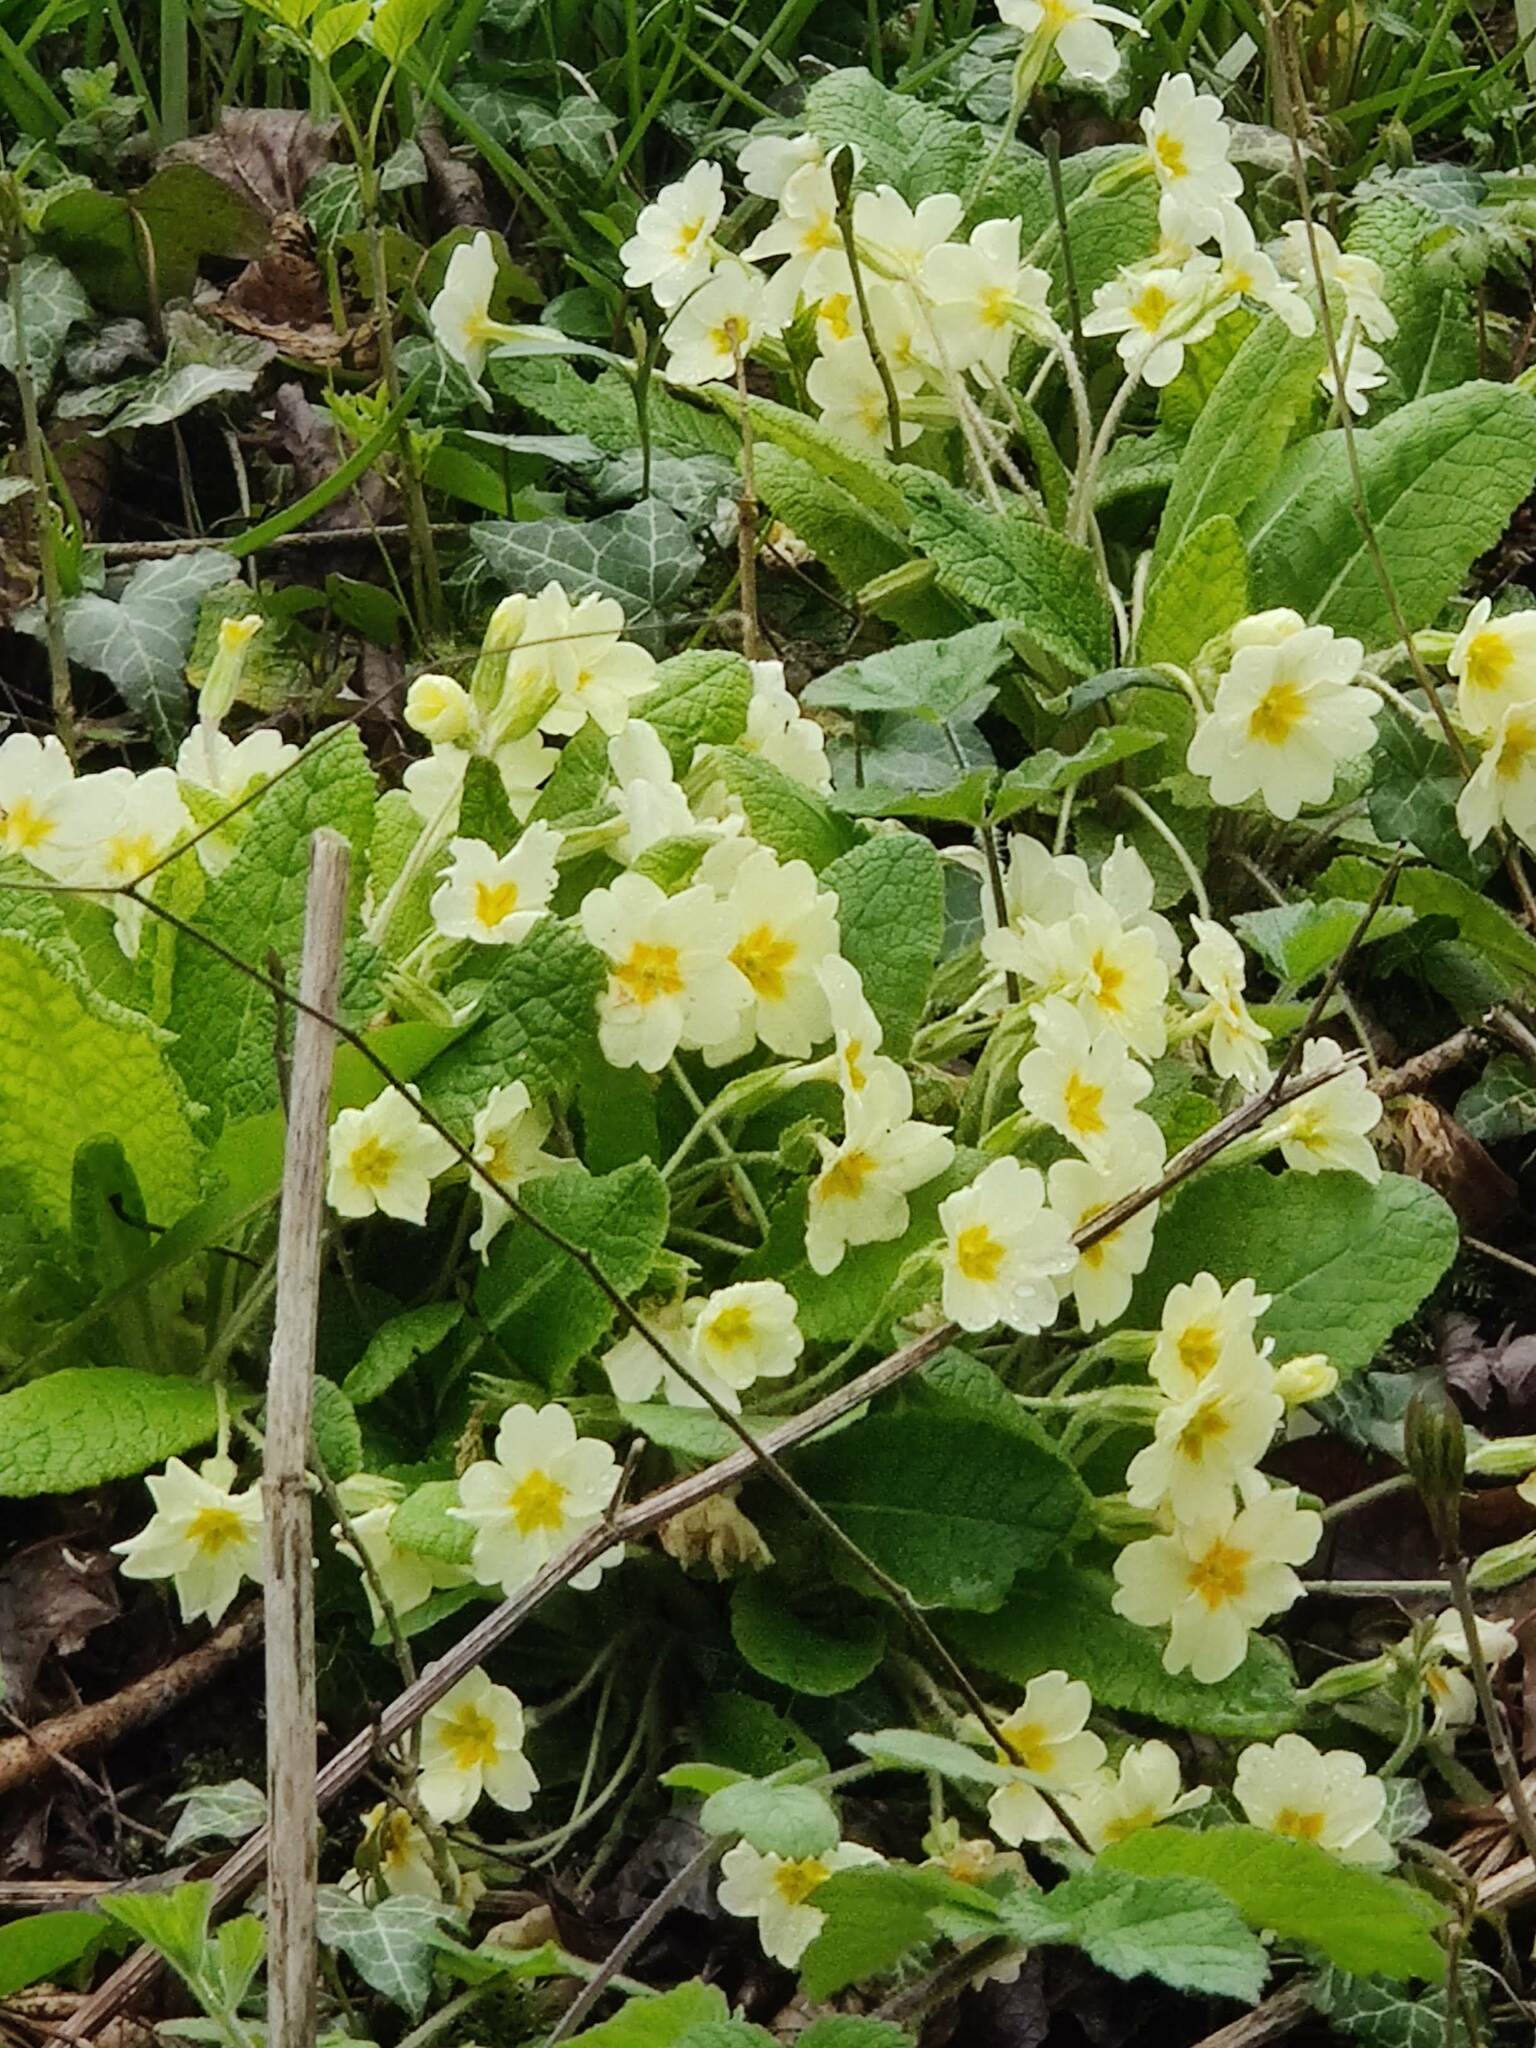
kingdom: Plantae
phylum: Tracheophyta
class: Magnoliopsida
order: Ericales
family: Primulaceae
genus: Primula
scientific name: Primula vulgaris
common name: Primrose
